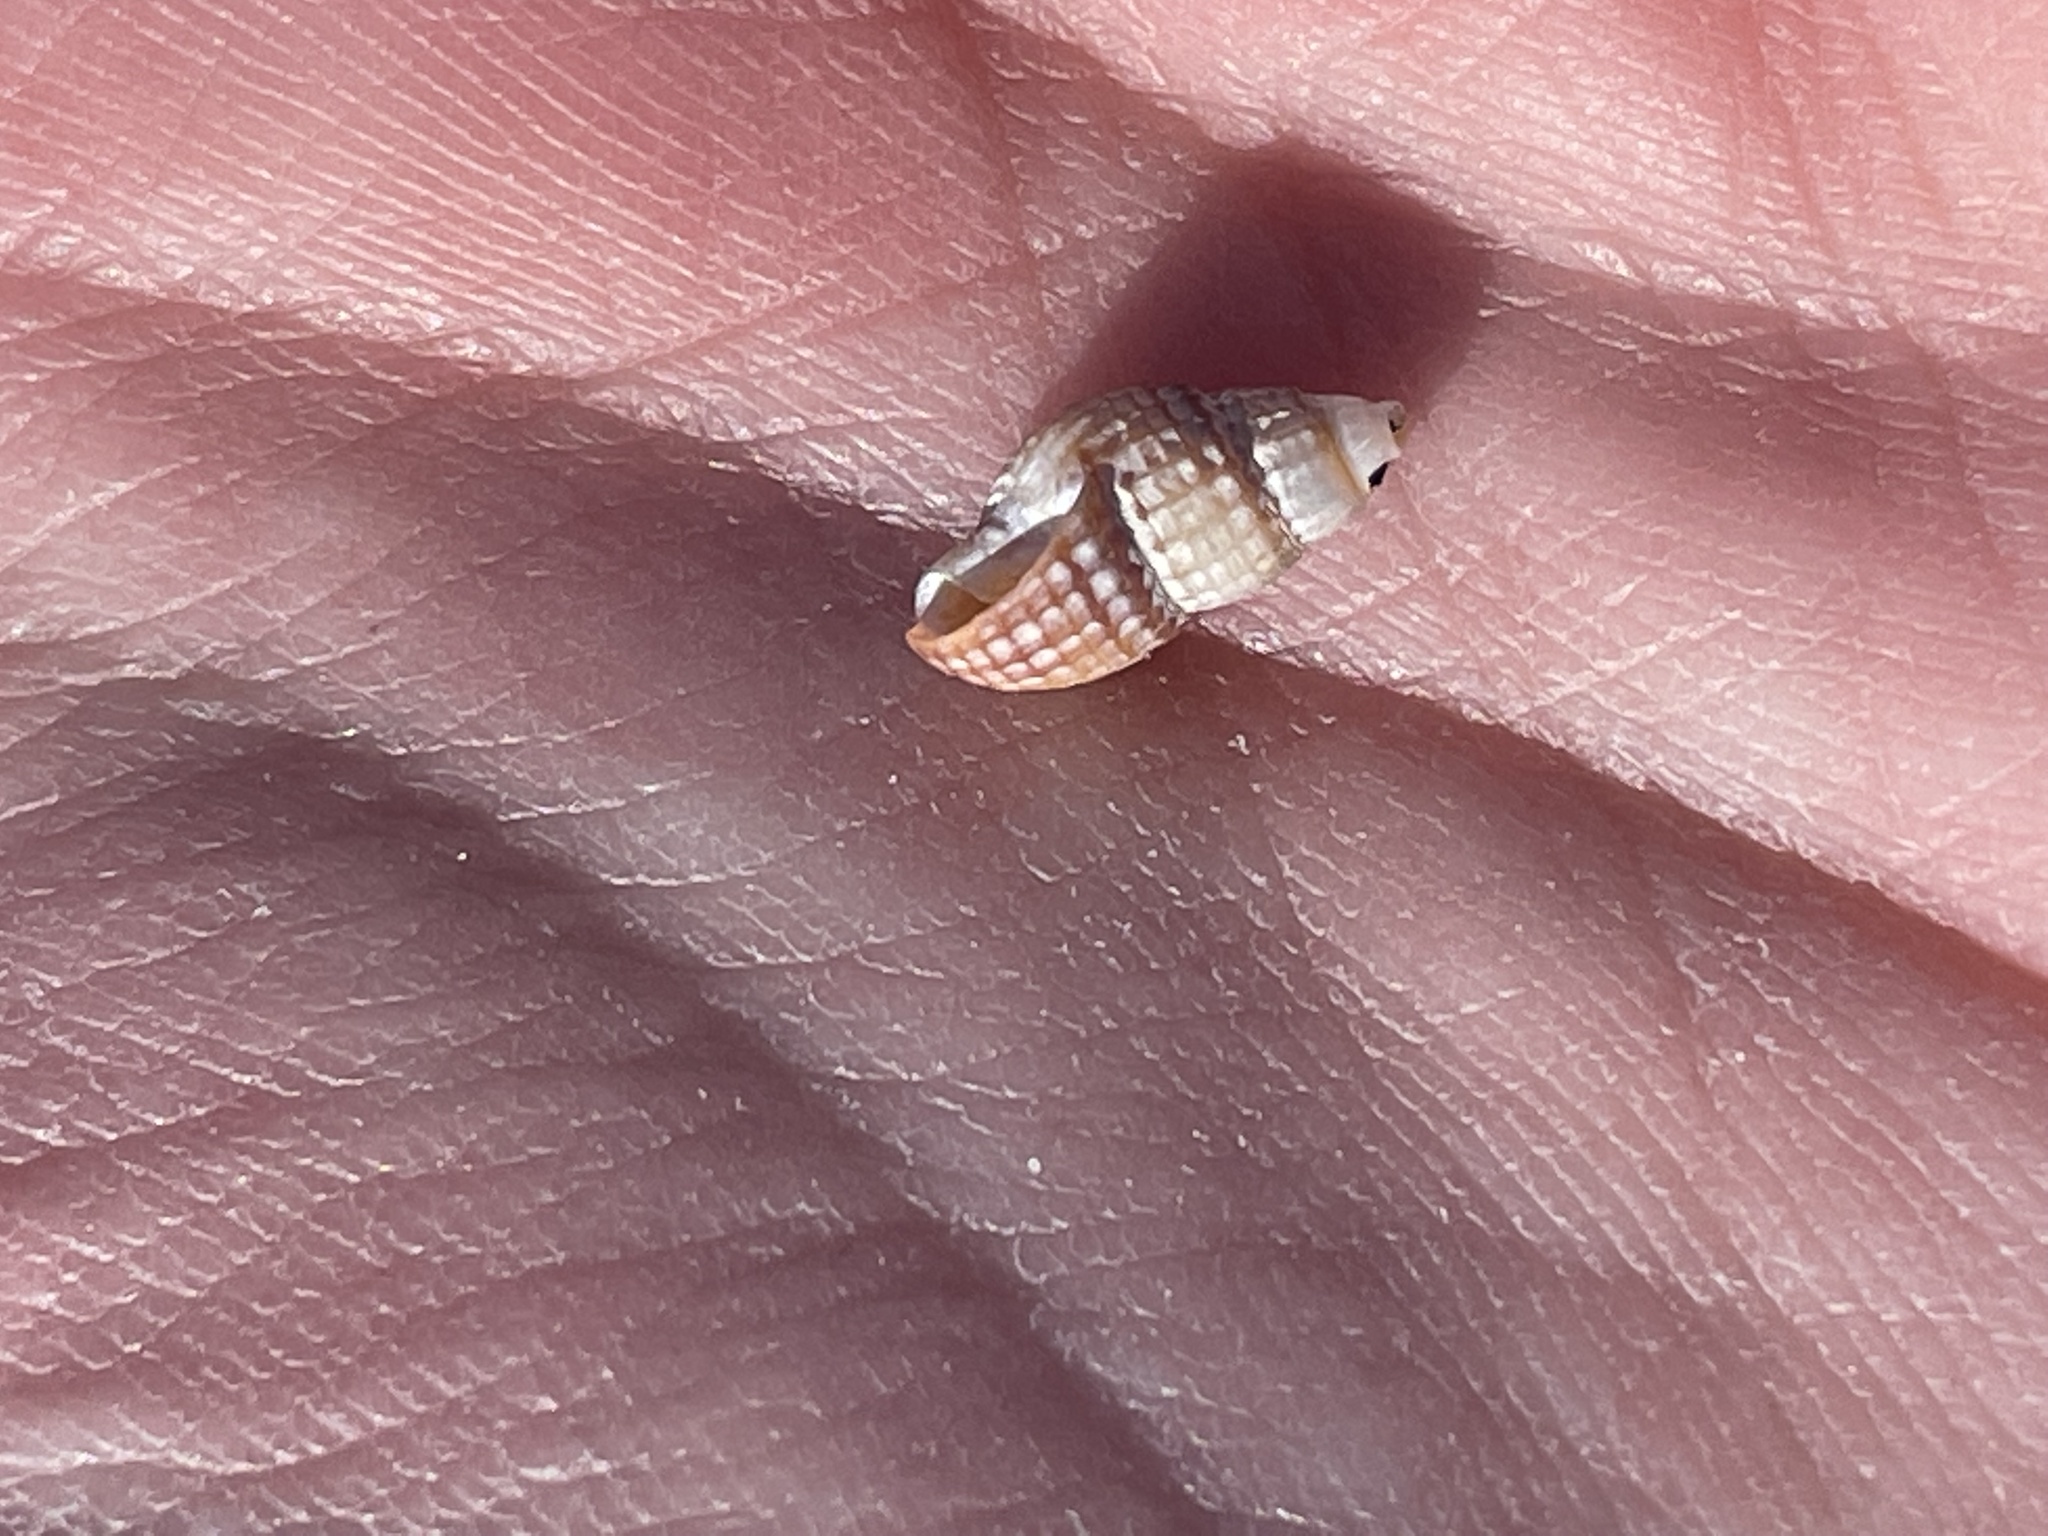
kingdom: Animalia
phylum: Mollusca
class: Gastropoda
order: Neogastropoda
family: Nassariidae
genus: Ilyanassa
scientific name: Ilyanassa trivittata
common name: Three-line mudsnail
